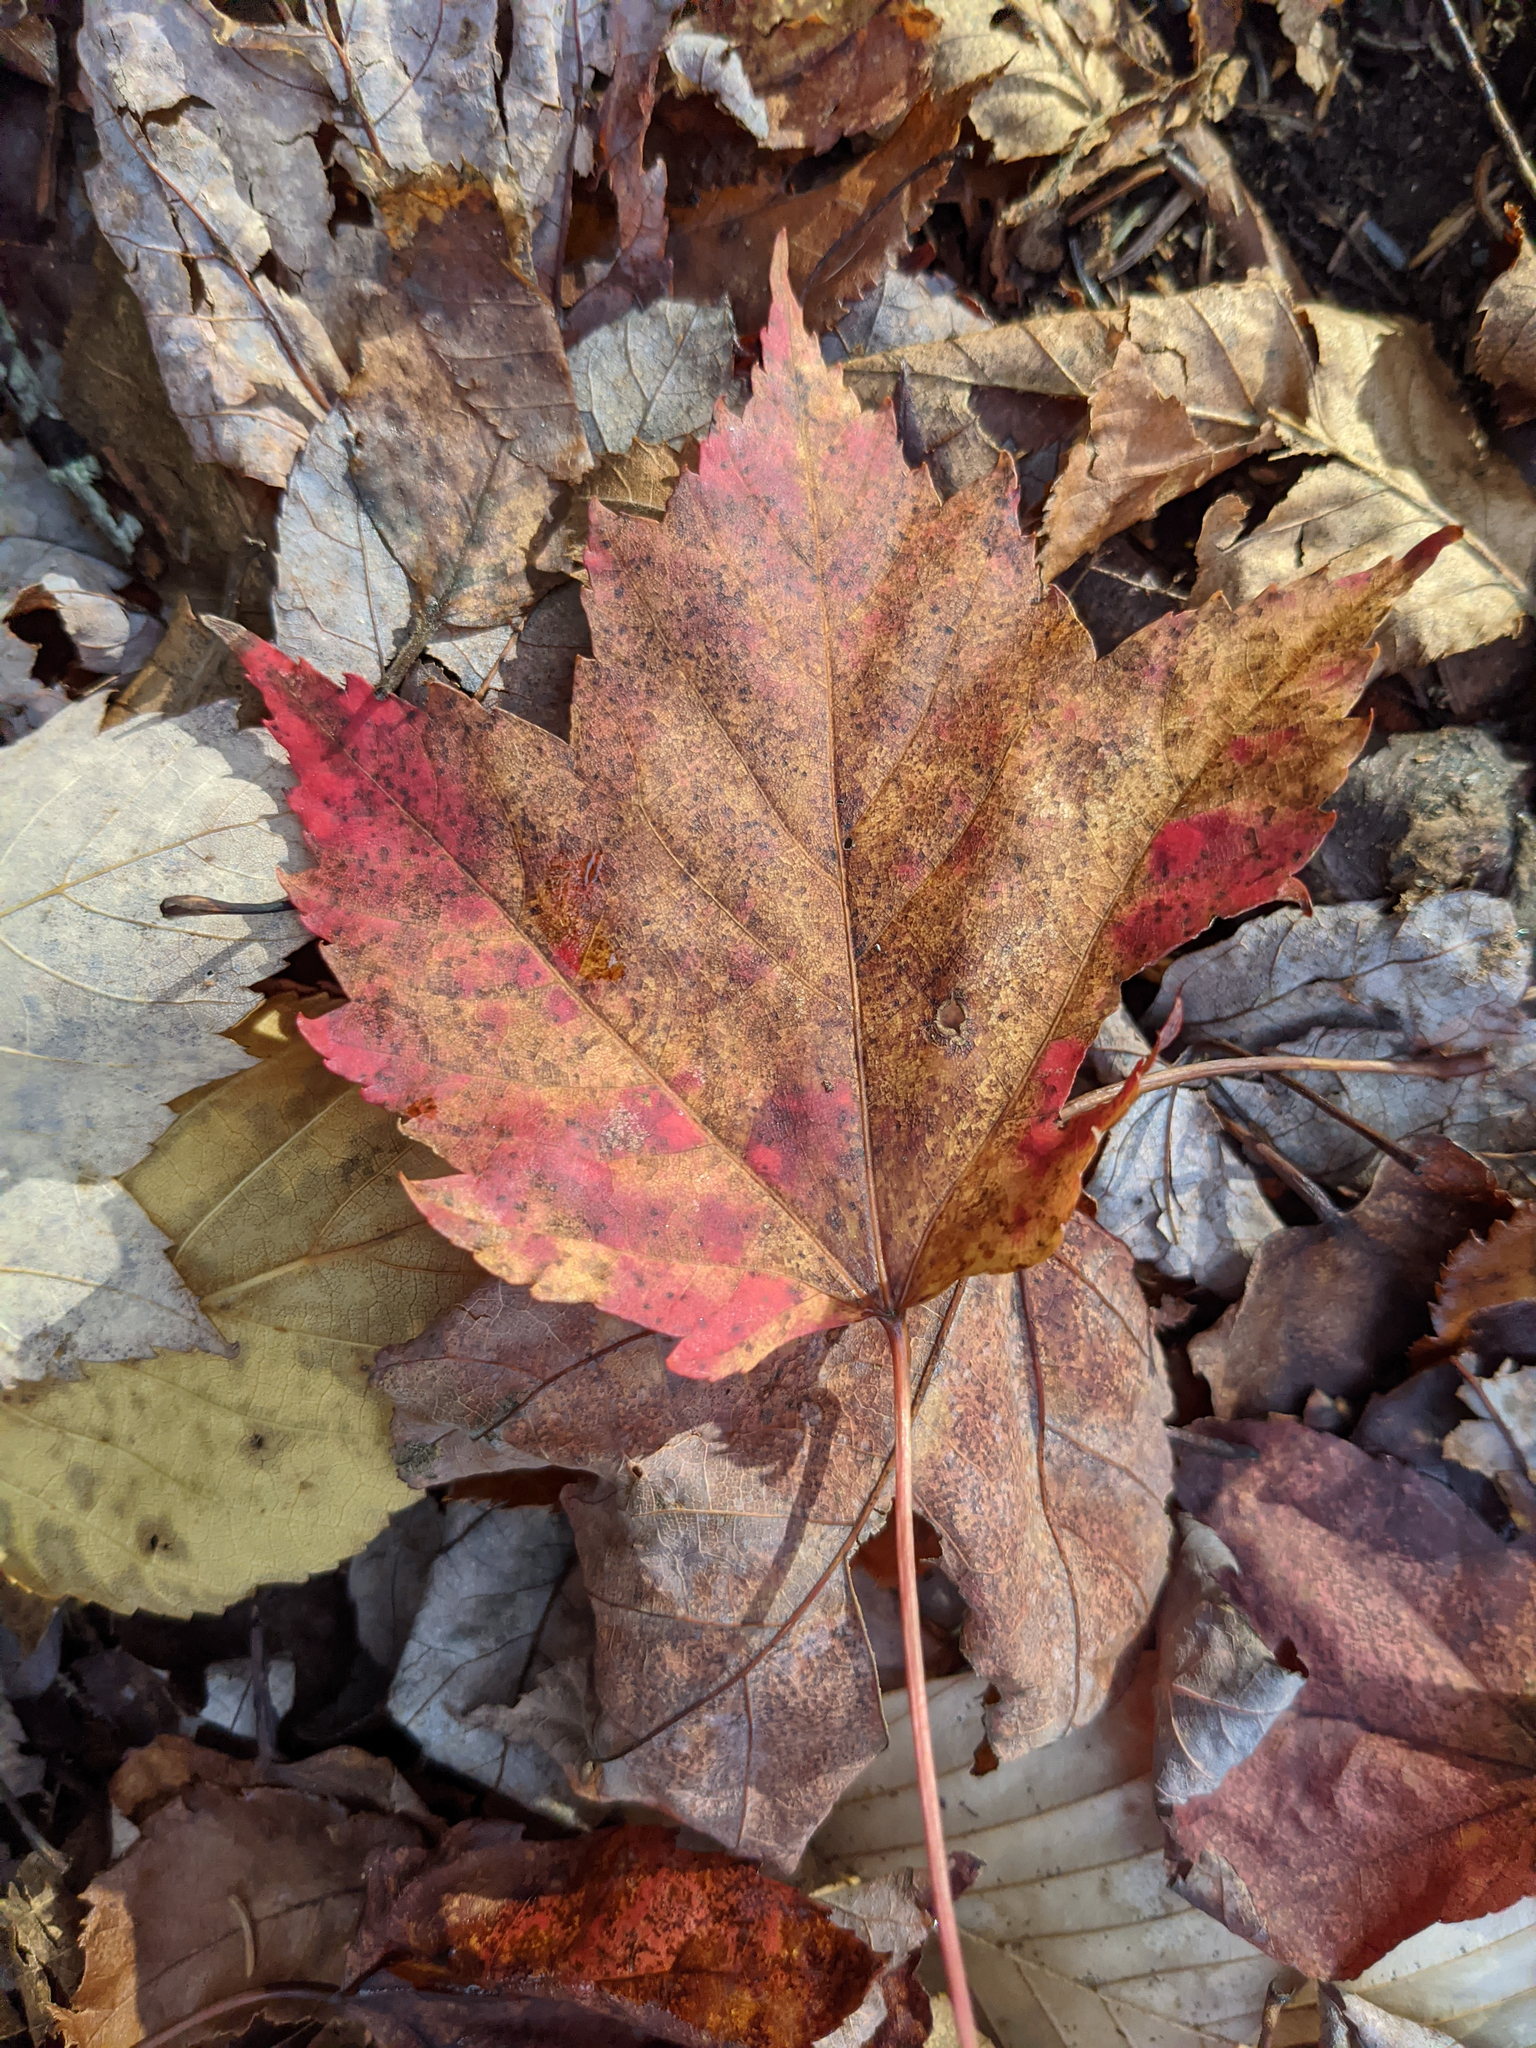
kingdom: Plantae
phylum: Tracheophyta
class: Magnoliopsida
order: Sapindales
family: Sapindaceae
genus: Acer
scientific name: Acer rubrum
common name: Red maple
